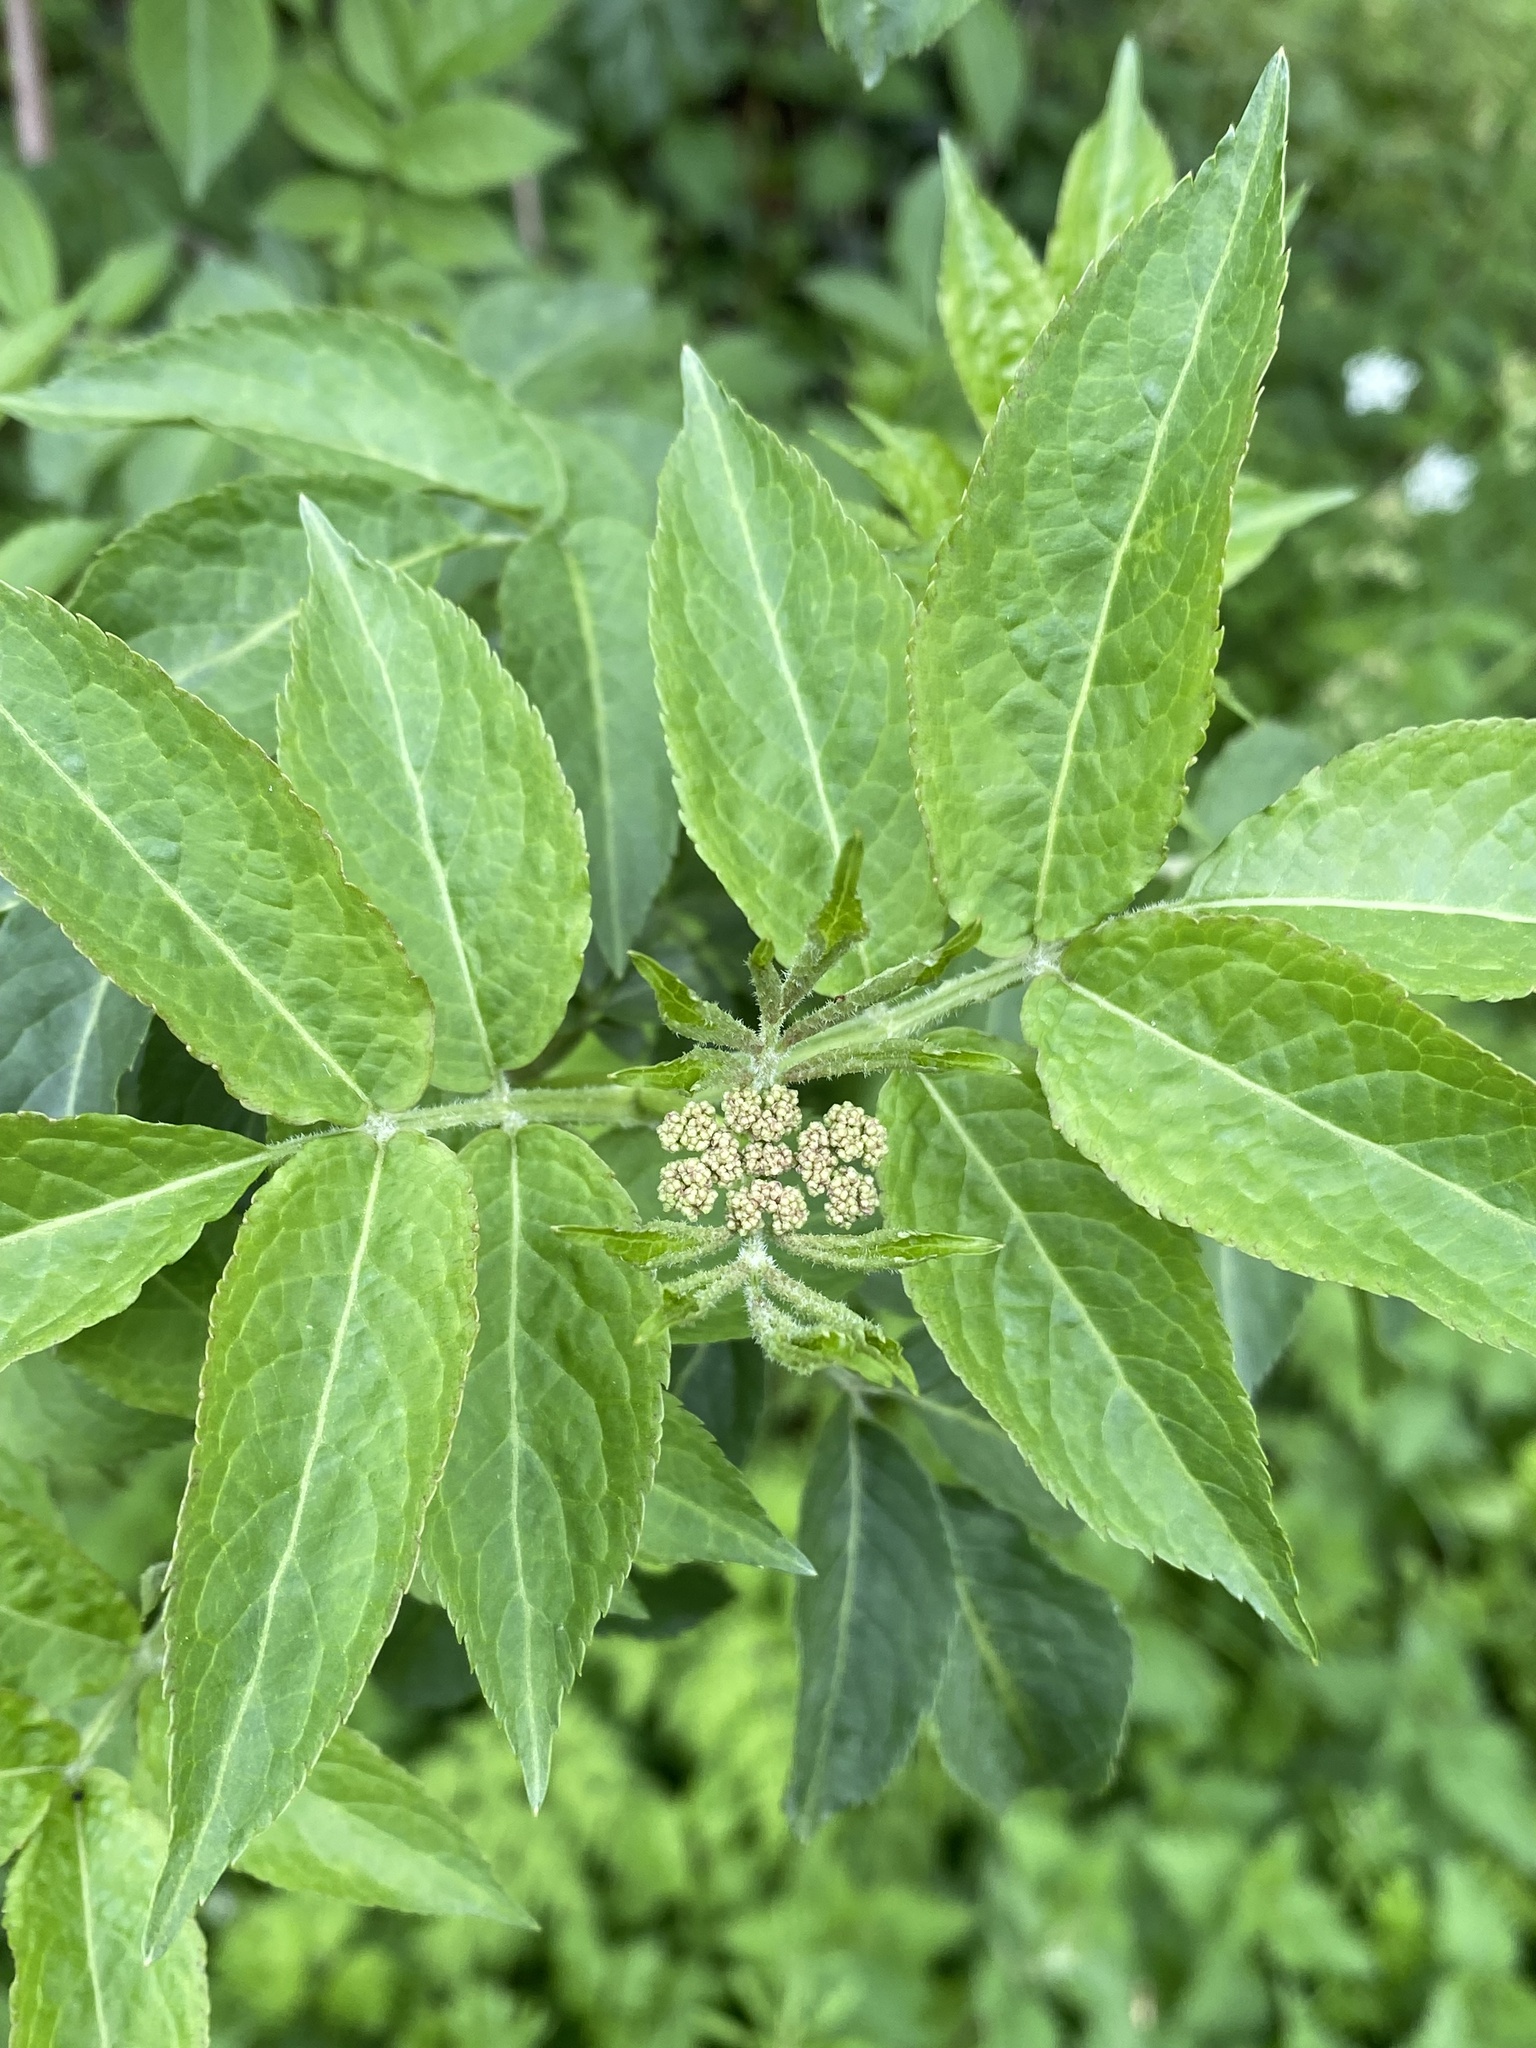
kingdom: Plantae
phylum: Tracheophyta
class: Magnoliopsida
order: Dipsacales
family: Viburnaceae
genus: Sambucus
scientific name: Sambucus nigra
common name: Elder
